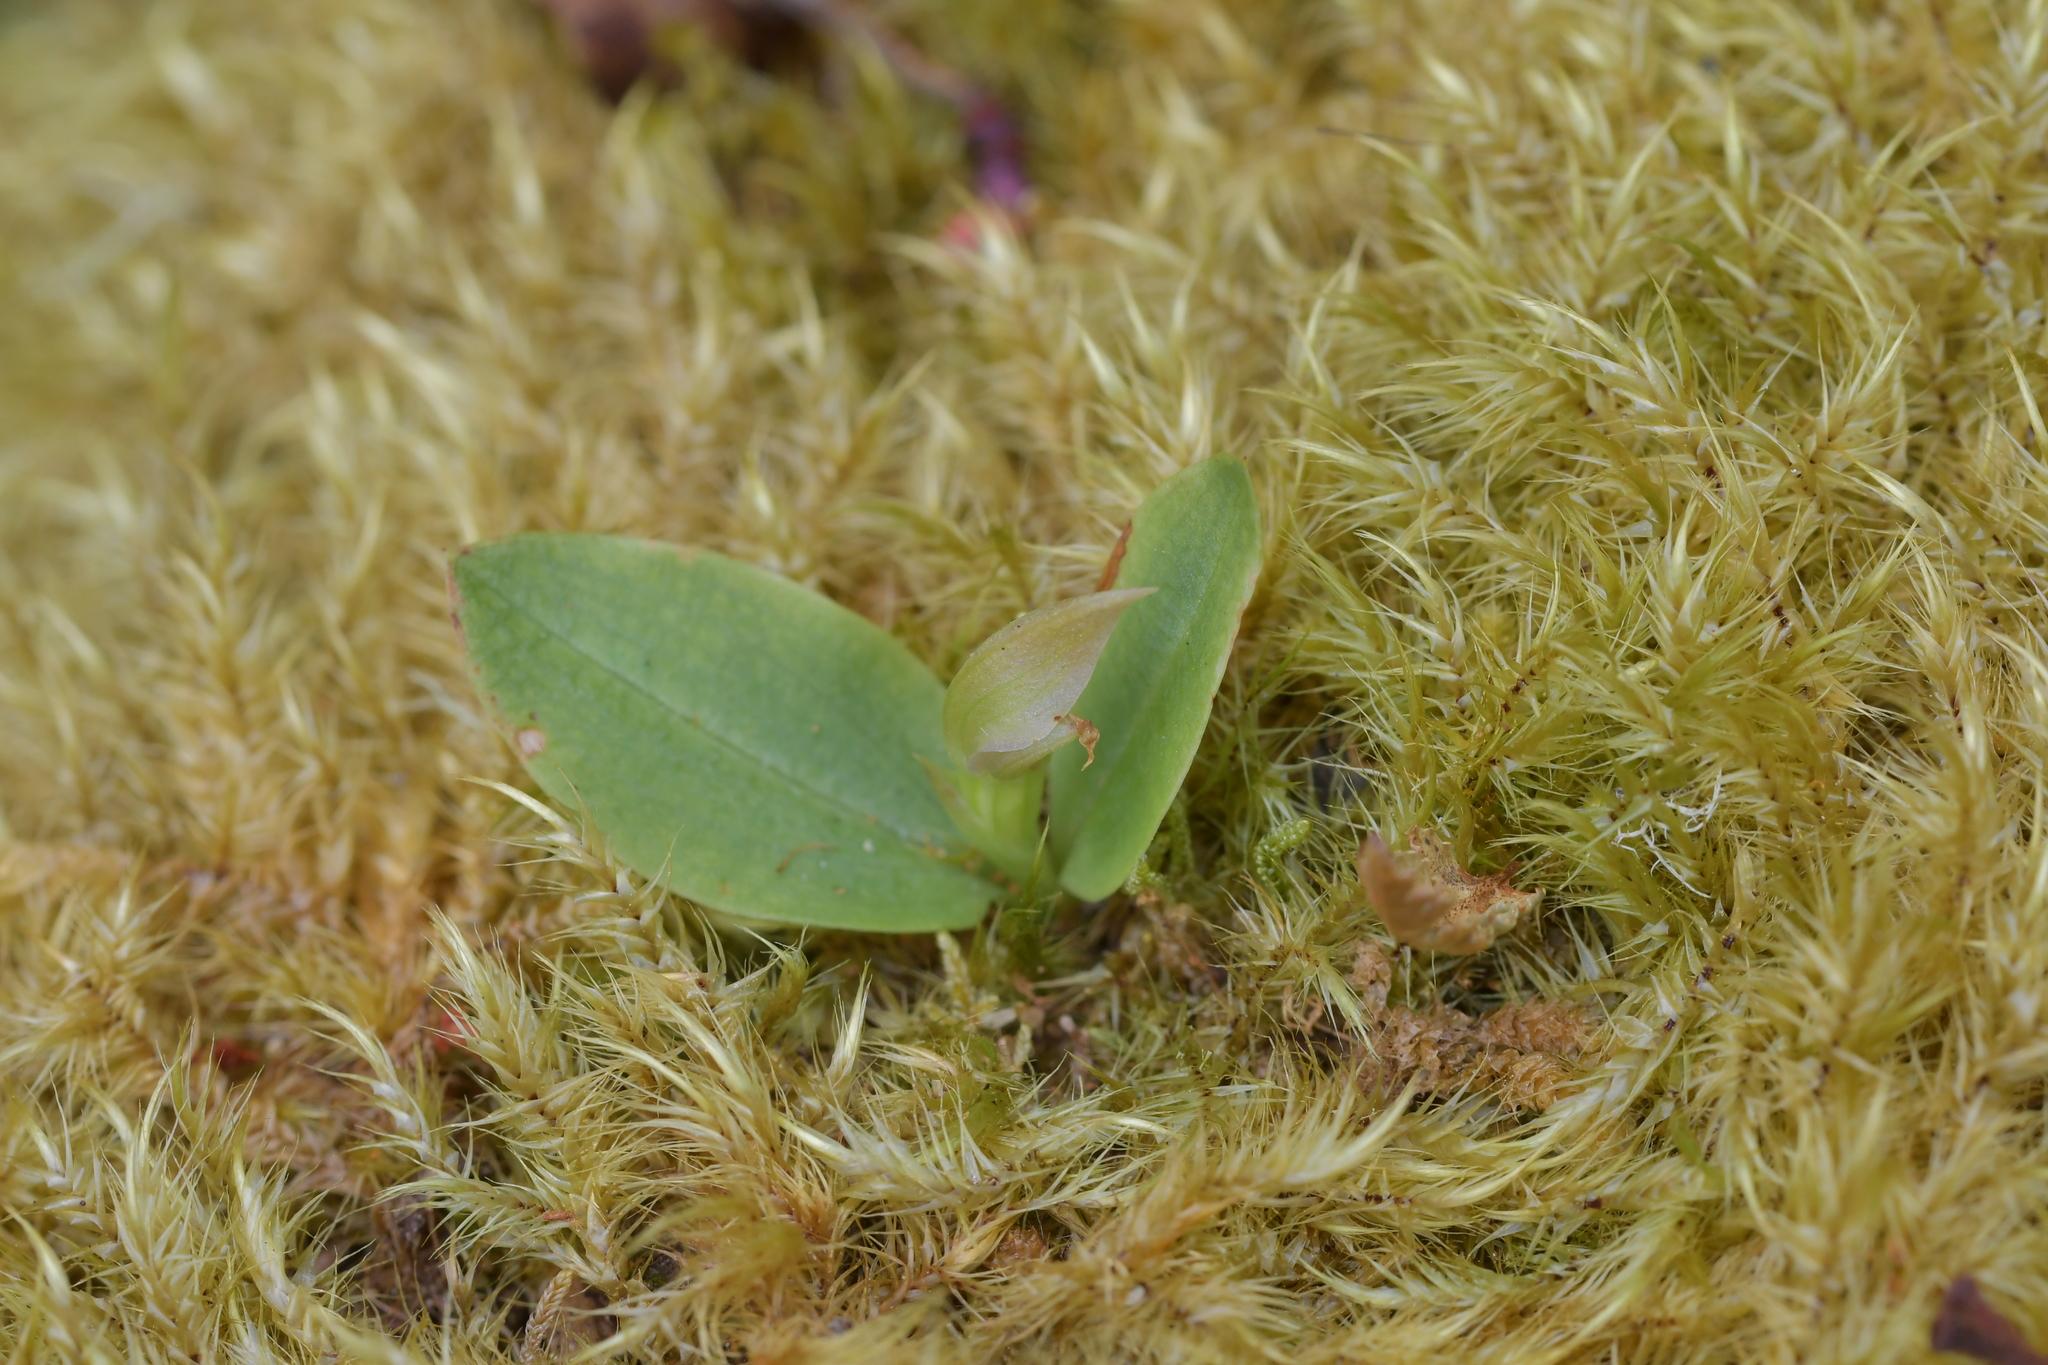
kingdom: Plantae
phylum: Tracheophyta
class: Liliopsida
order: Asparagales
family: Orchidaceae
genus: Chiloglottis
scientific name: Chiloglottis cornuta
